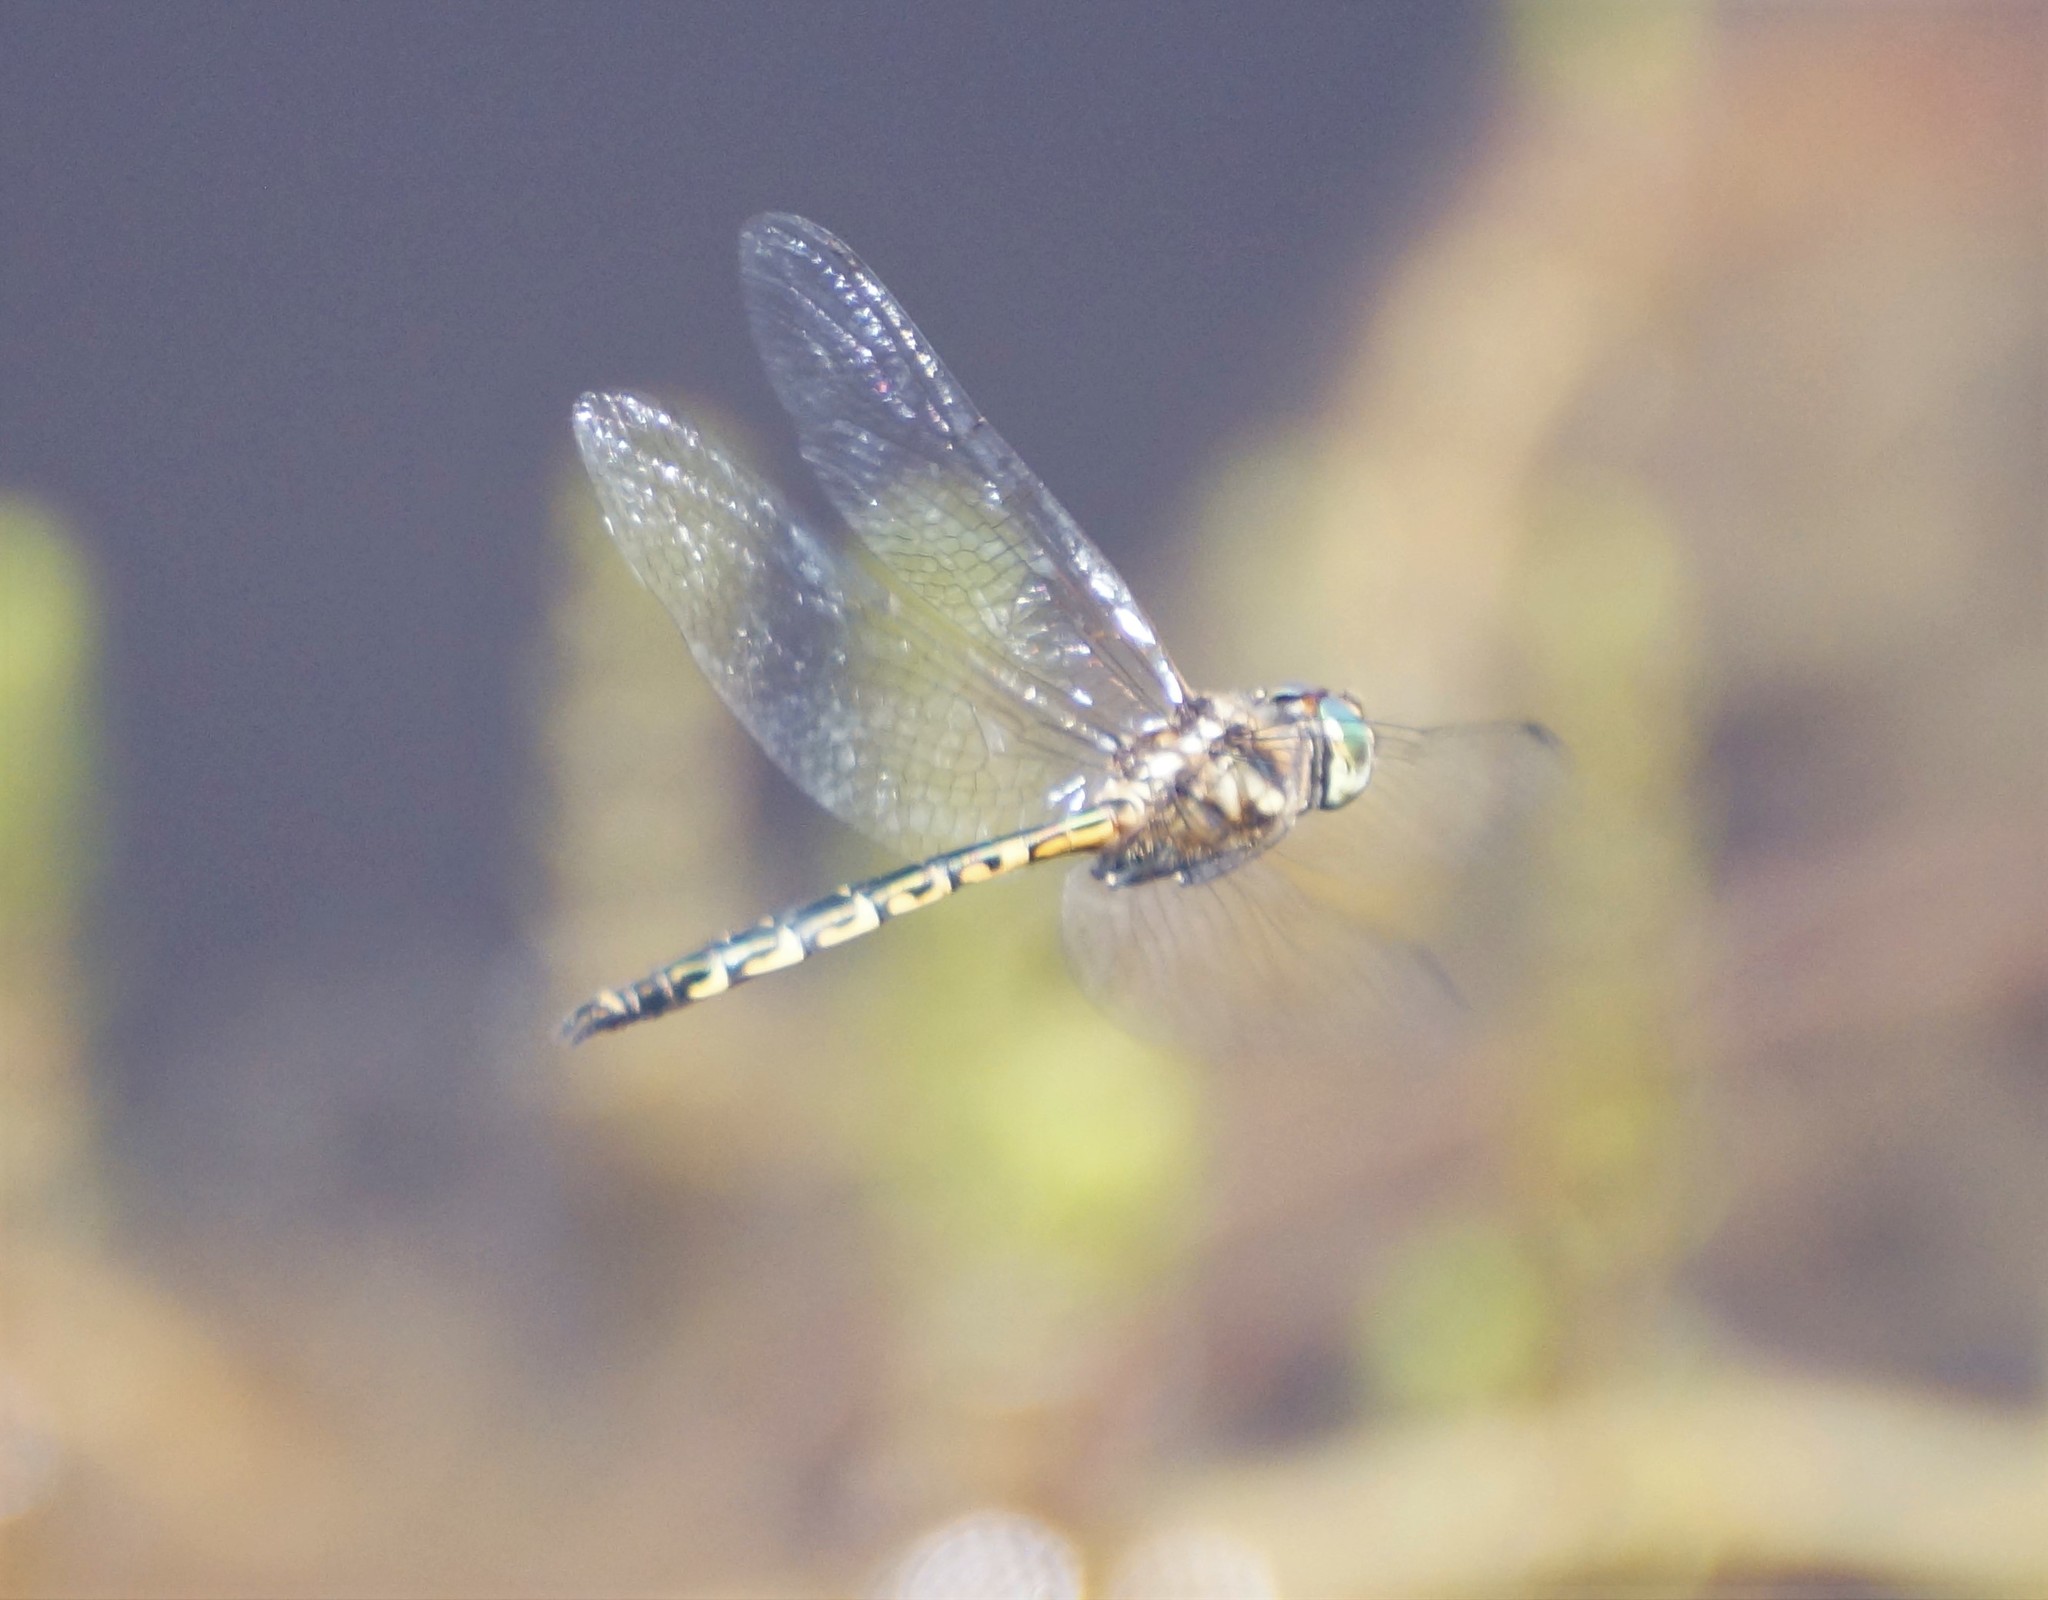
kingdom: Animalia
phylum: Arthropoda
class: Insecta
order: Odonata
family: Corduliidae
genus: Hemicordulia
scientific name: Hemicordulia australiae
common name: Sentry dragonfly
